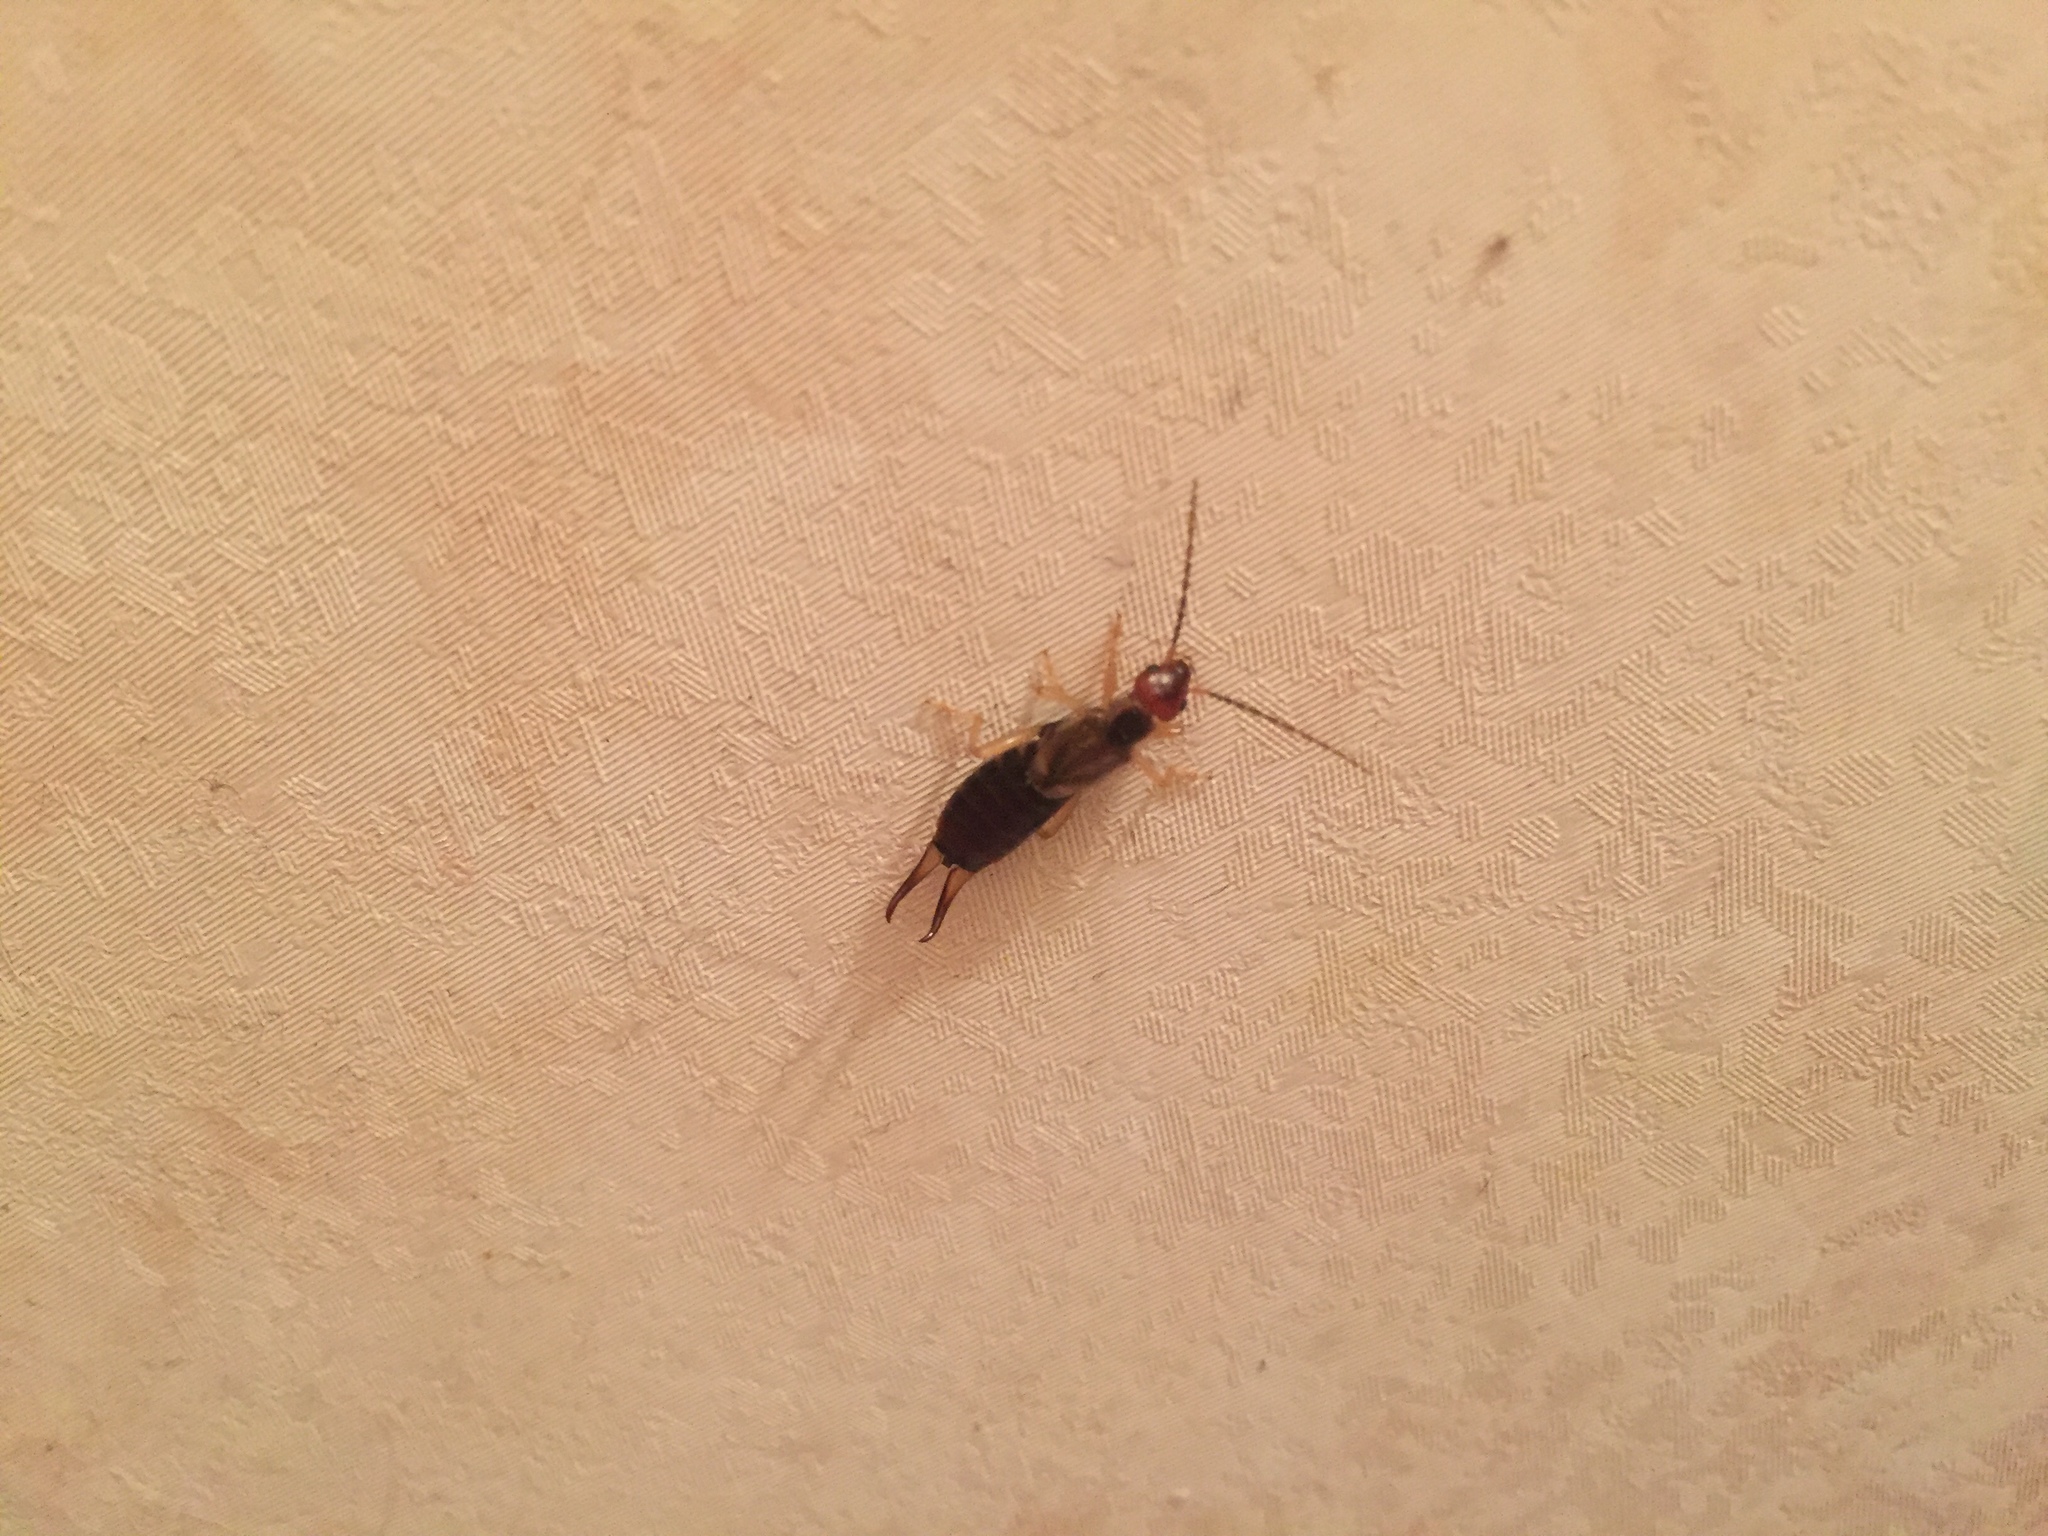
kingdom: Animalia
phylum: Arthropoda
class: Insecta
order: Dermaptera
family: Forficulidae
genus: Forficula
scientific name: Forficula
